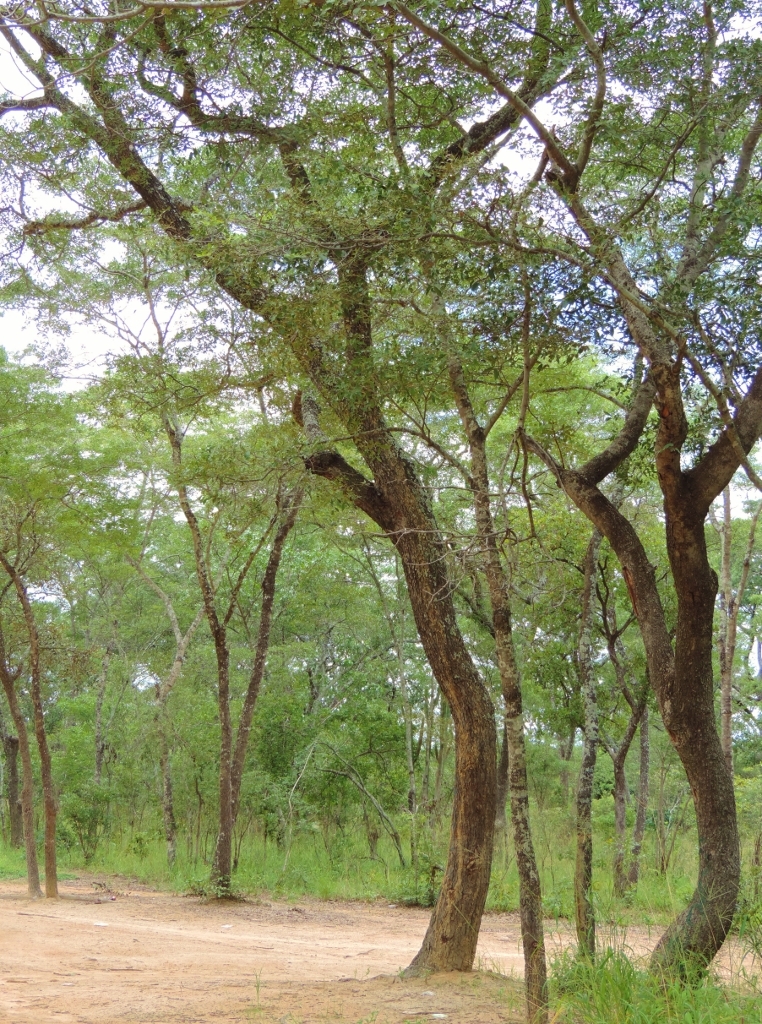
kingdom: Plantae
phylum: Tracheophyta
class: Magnoliopsida
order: Fabales
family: Fabaceae
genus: Brachystegia
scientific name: Brachystegia spiciformis
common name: Zebrawood
